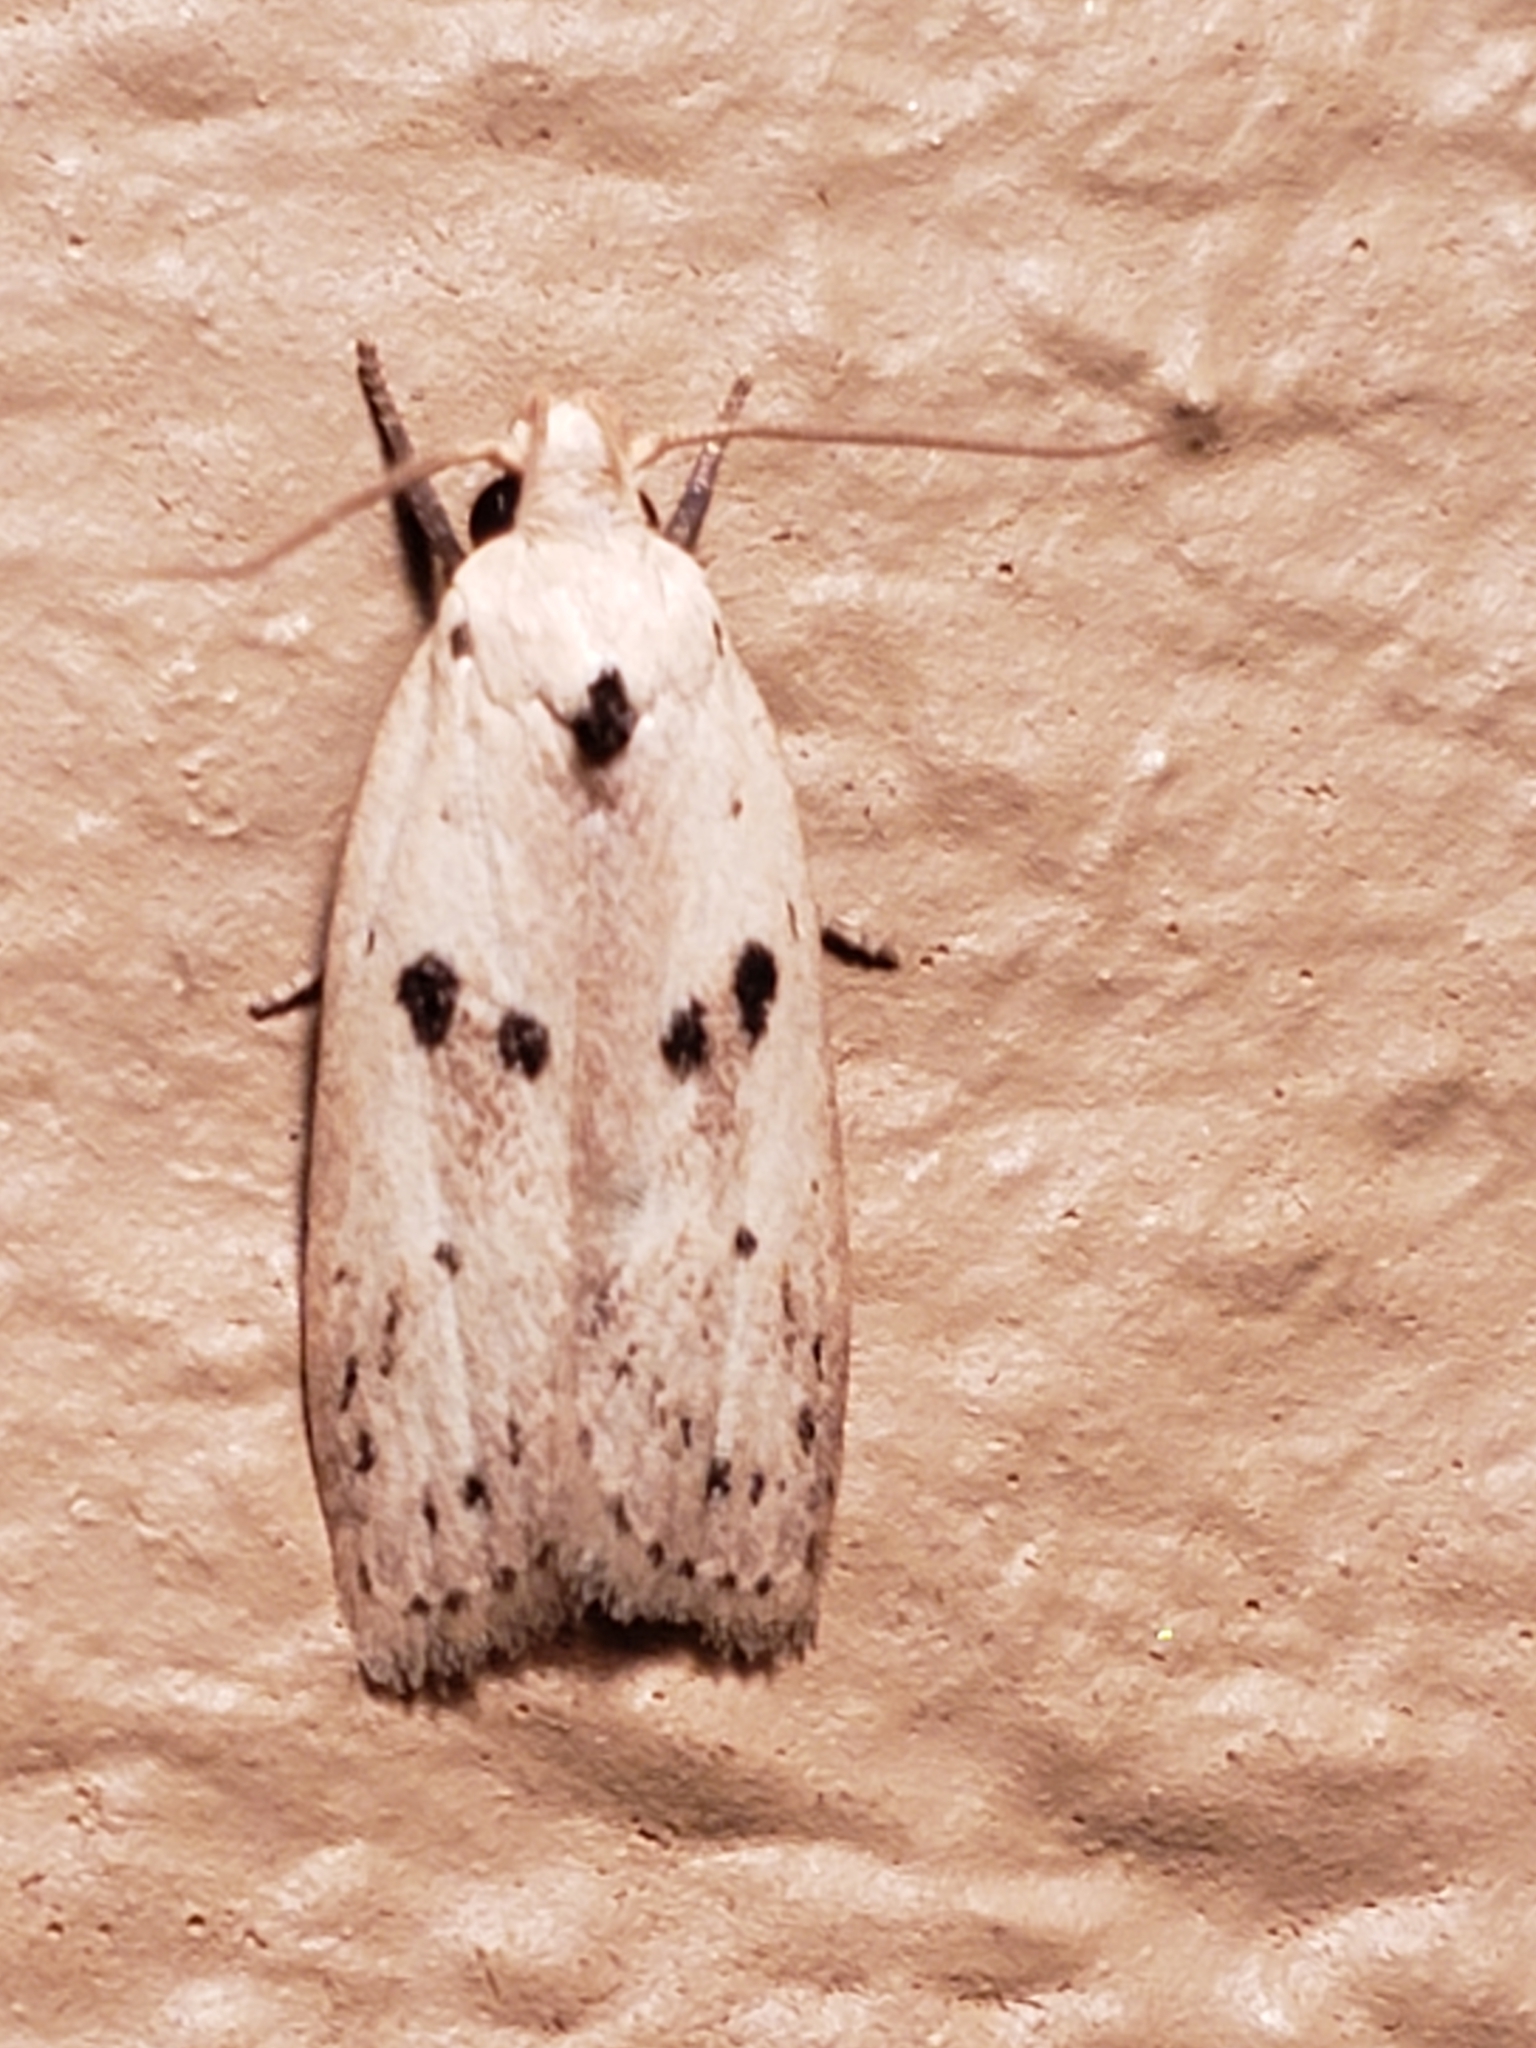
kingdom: Animalia
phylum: Arthropoda
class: Insecta
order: Lepidoptera
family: Peleopodidae
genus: Scythropiodes
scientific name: Scythropiodes issikii
